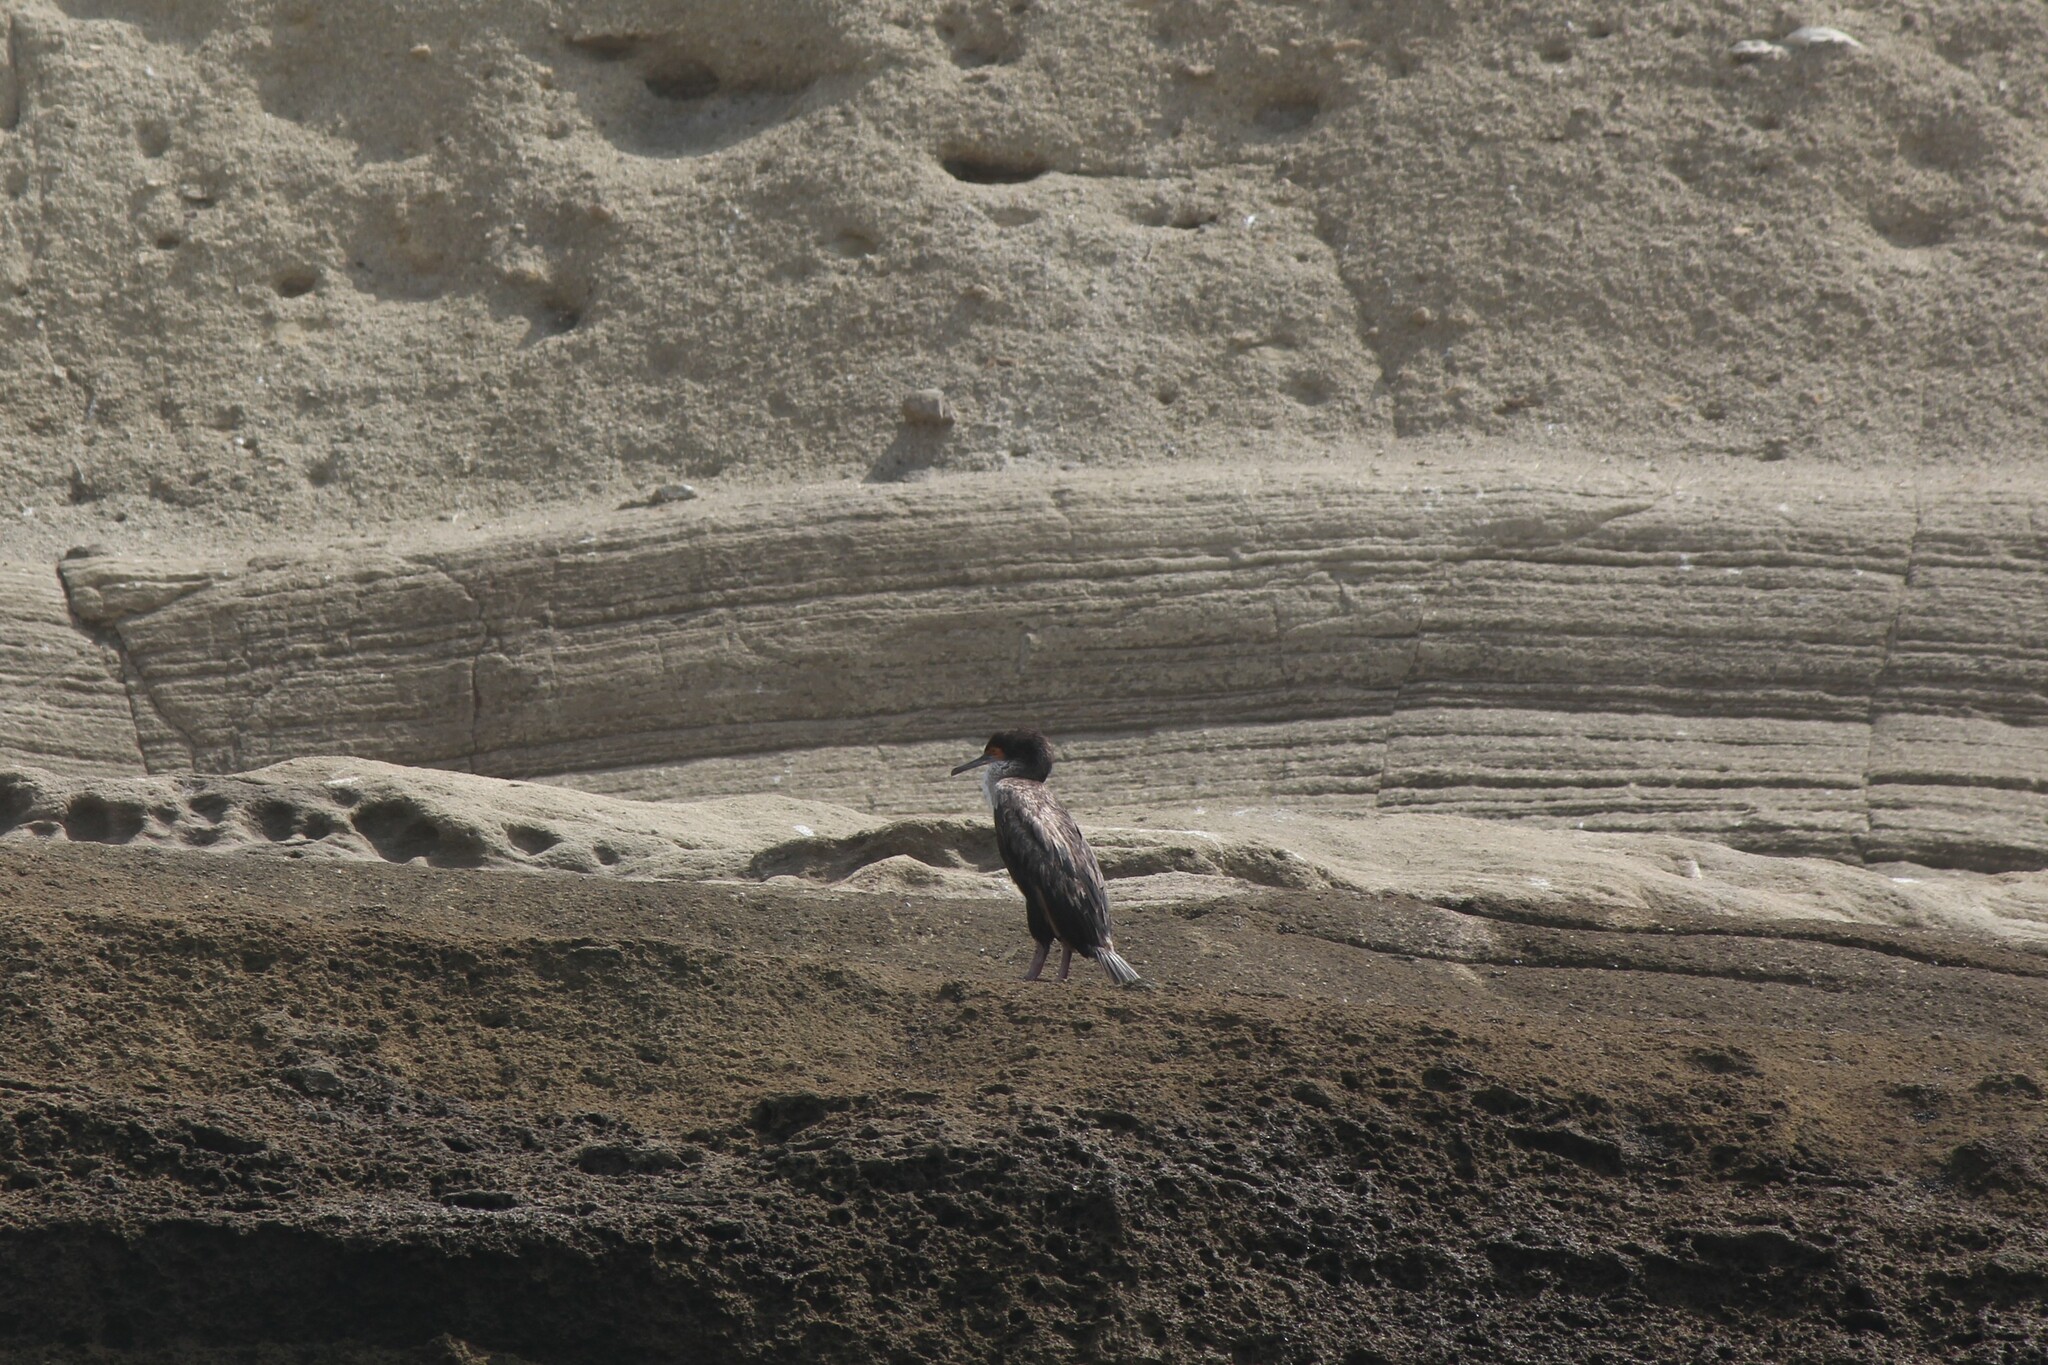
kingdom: Animalia
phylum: Chordata
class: Aves
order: Suliformes
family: Phalacrocoracidae
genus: Leucocarbo
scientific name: Leucocarbo bougainvillii
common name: Guanay cormorant
